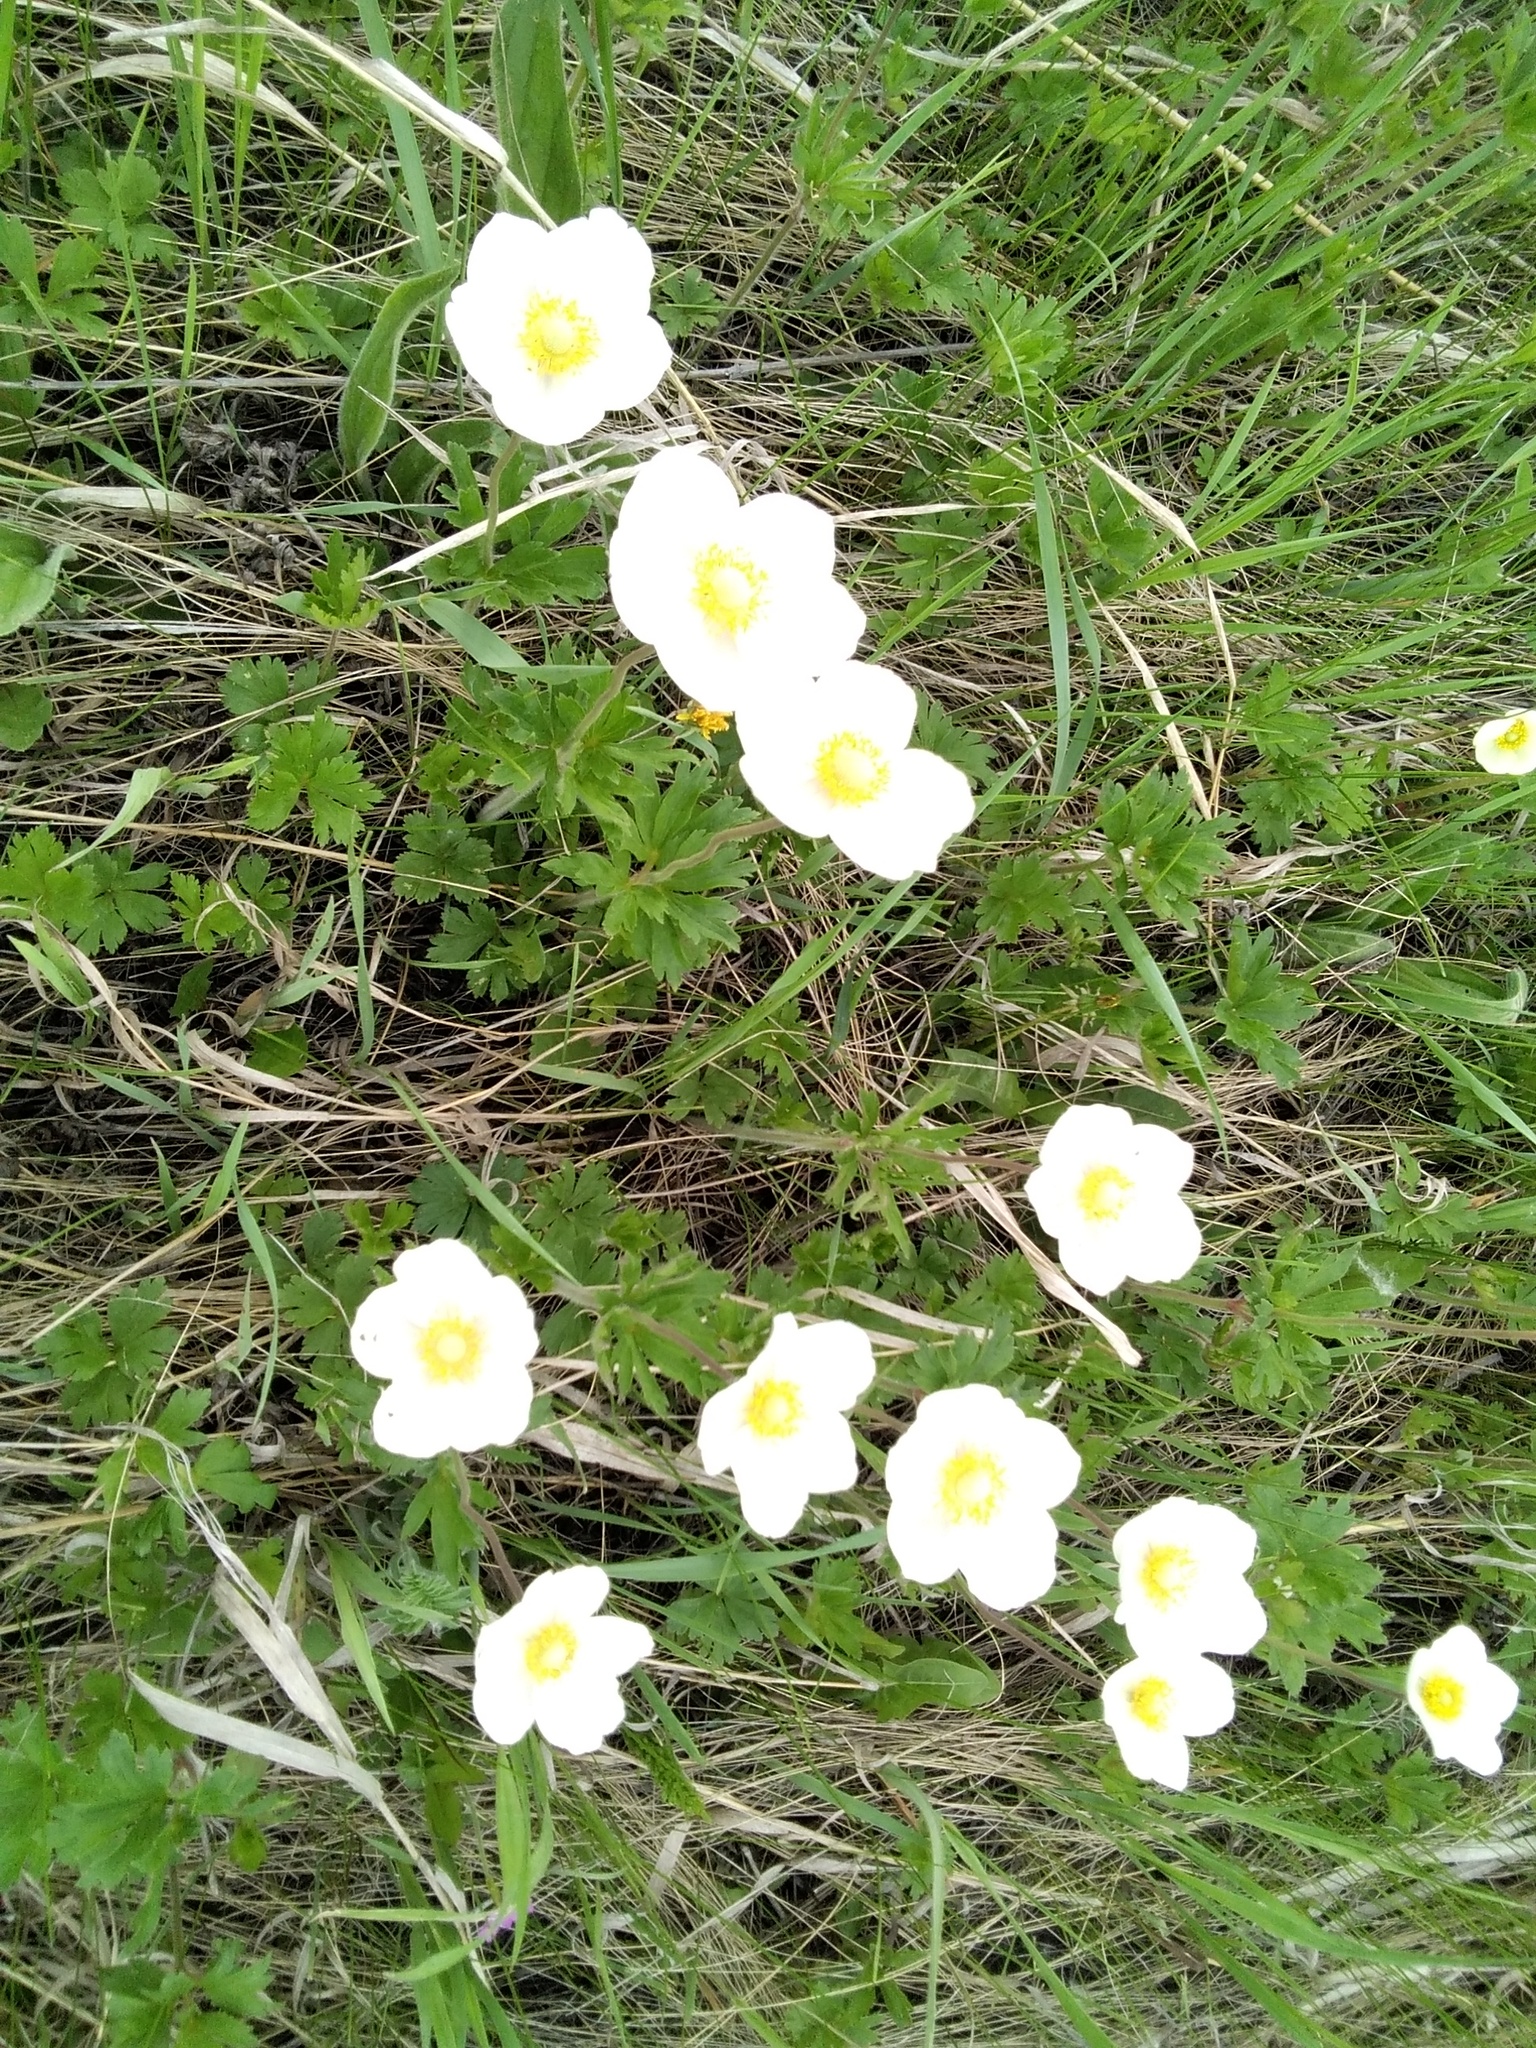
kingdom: Plantae
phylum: Tracheophyta
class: Magnoliopsida
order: Ranunculales
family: Ranunculaceae
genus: Anemone
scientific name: Anemone sylvestris
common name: Snowdrop anemone
